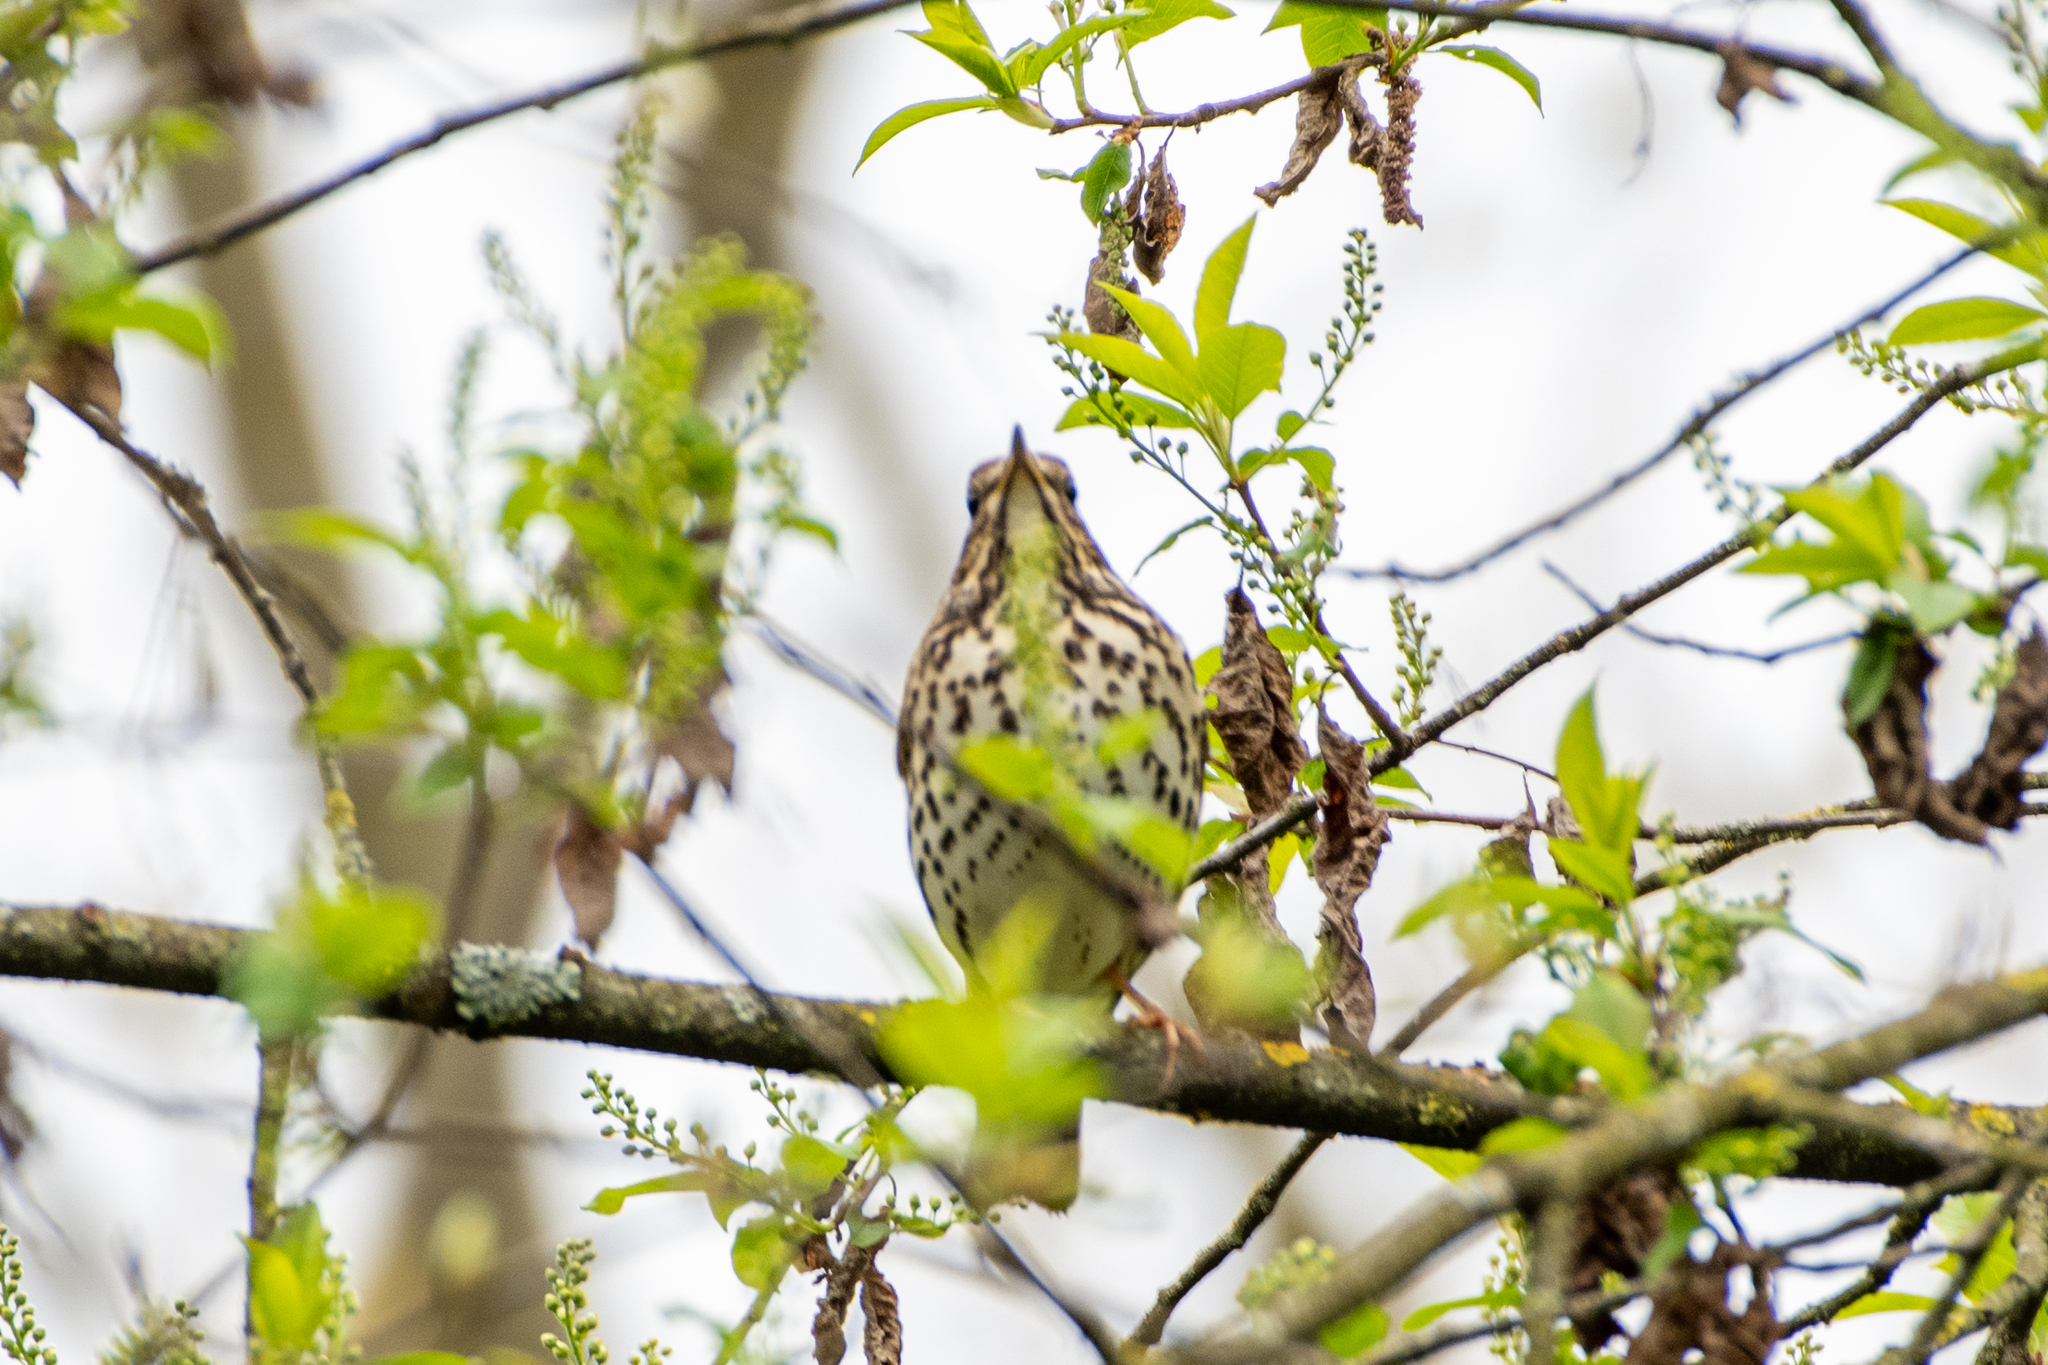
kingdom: Animalia
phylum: Chordata
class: Aves
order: Passeriformes
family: Turdidae
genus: Turdus
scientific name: Turdus philomelos
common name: Song thrush
